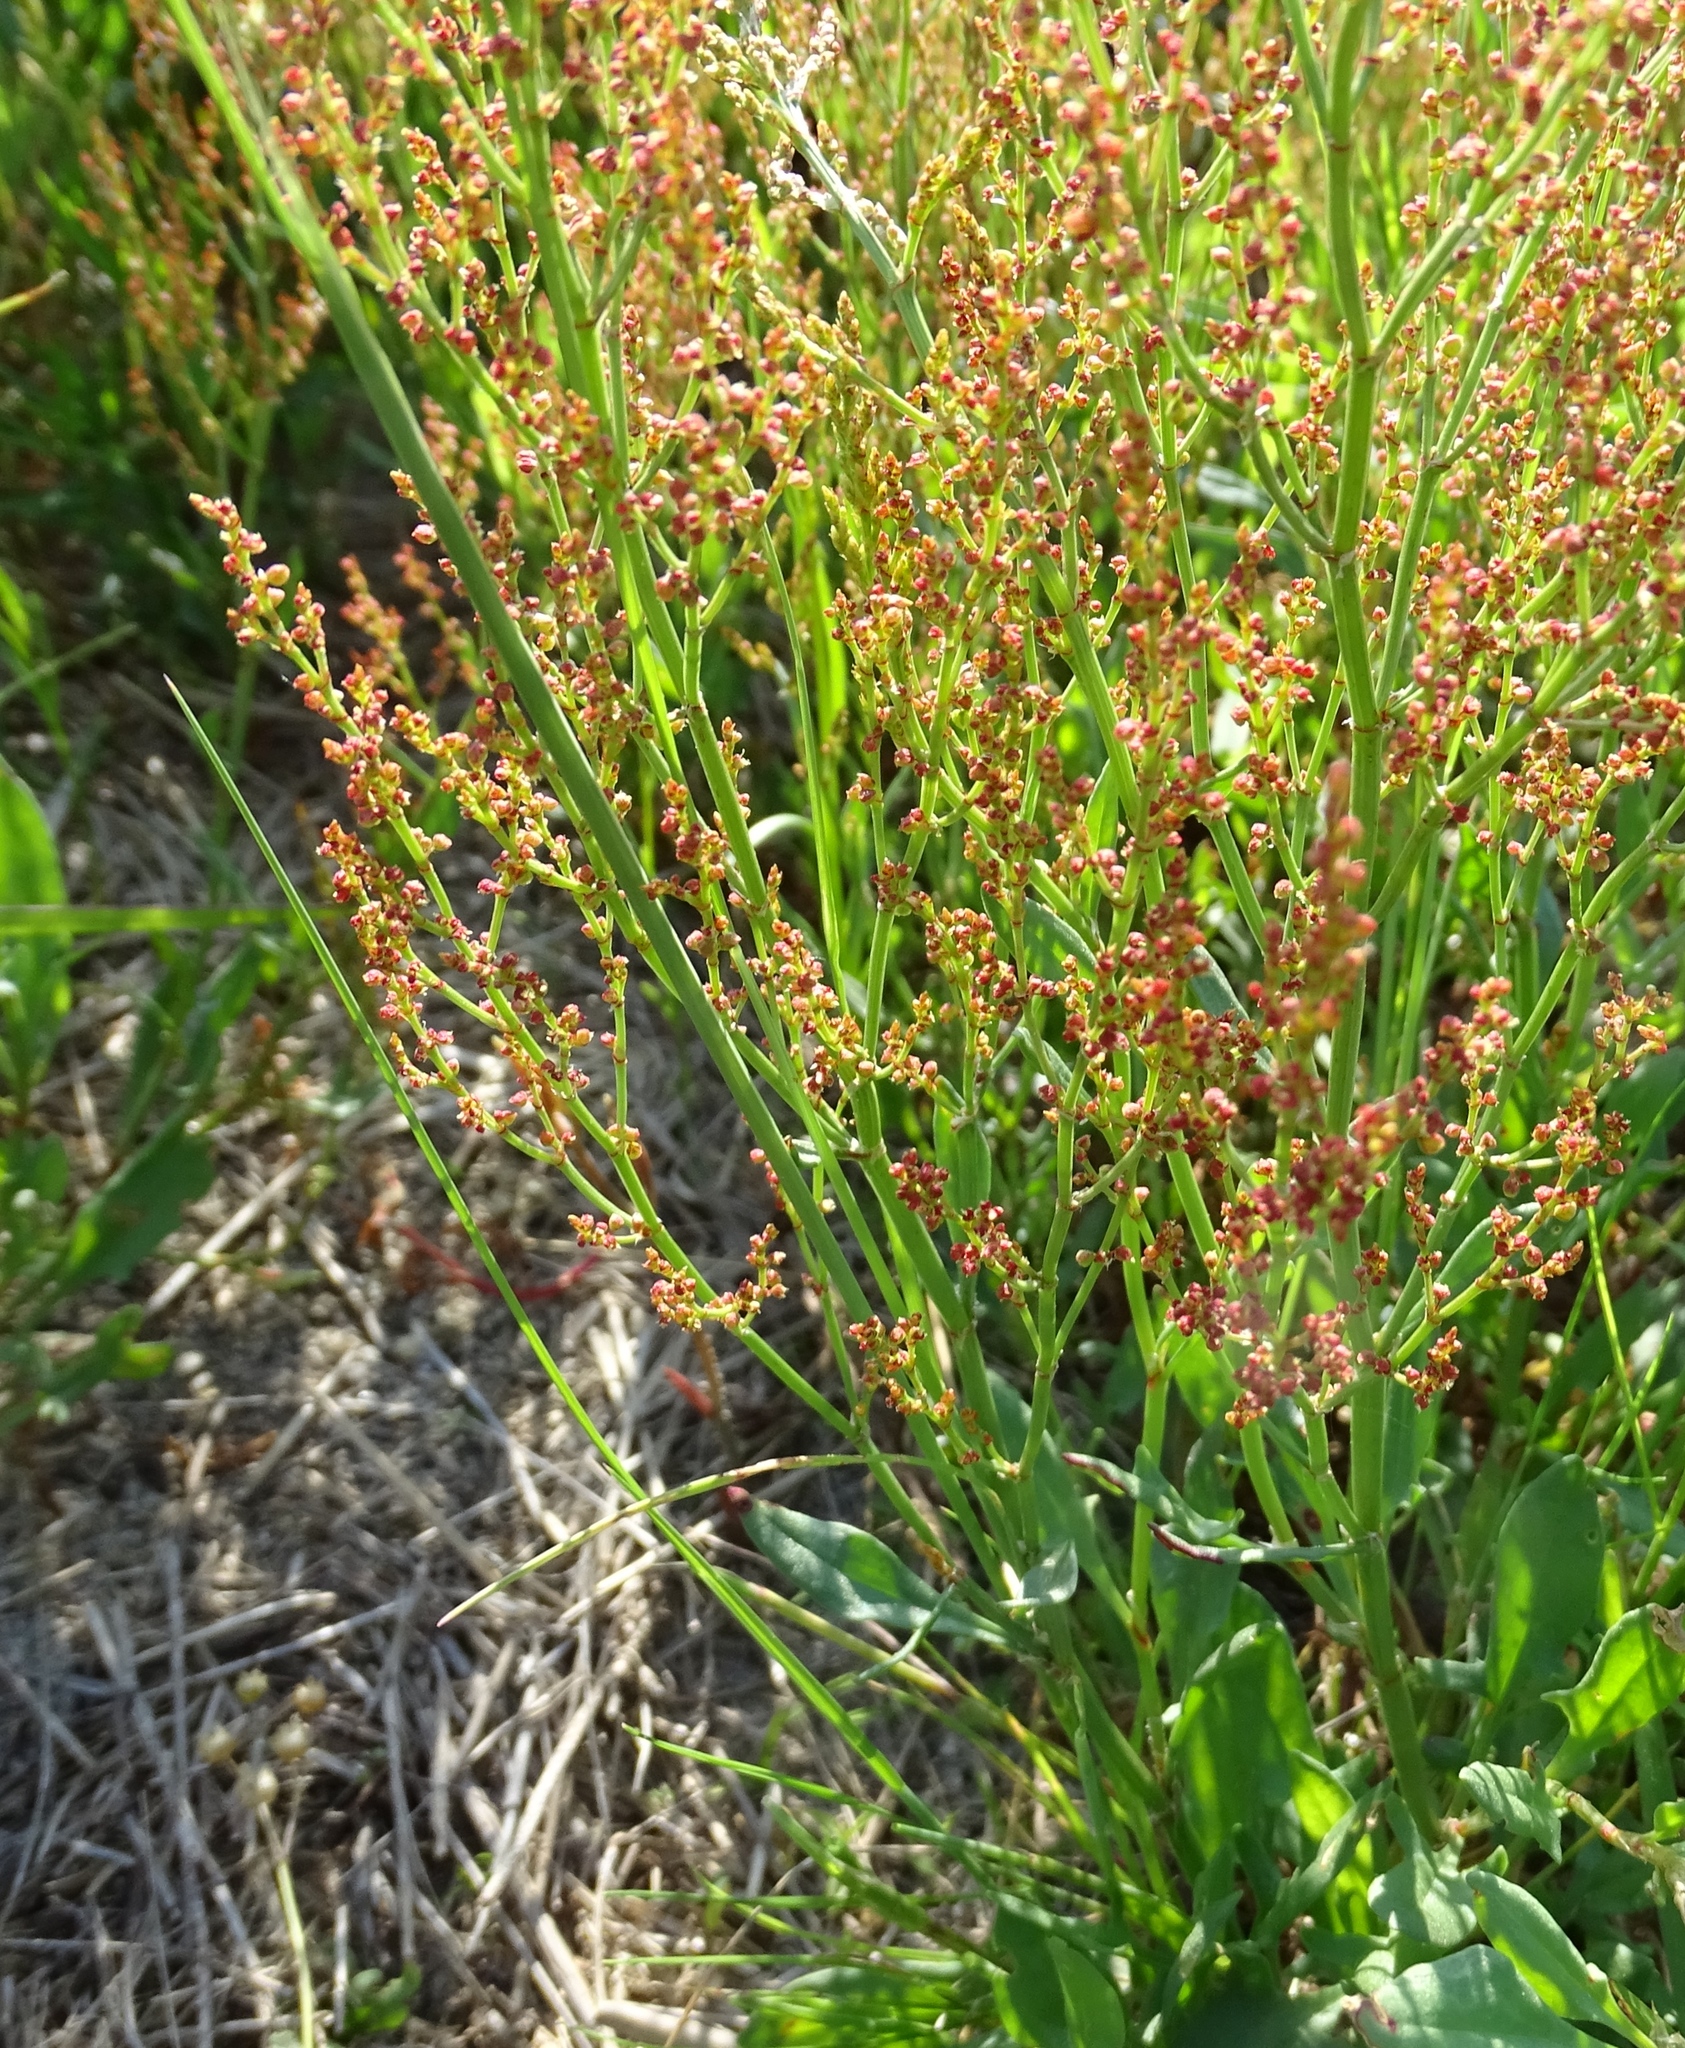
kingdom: Plantae
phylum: Tracheophyta
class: Magnoliopsida
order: Caryophyllales
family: Polygonaceae
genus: Rumex
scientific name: Rumex acetosella
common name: Common sheep sorrel
